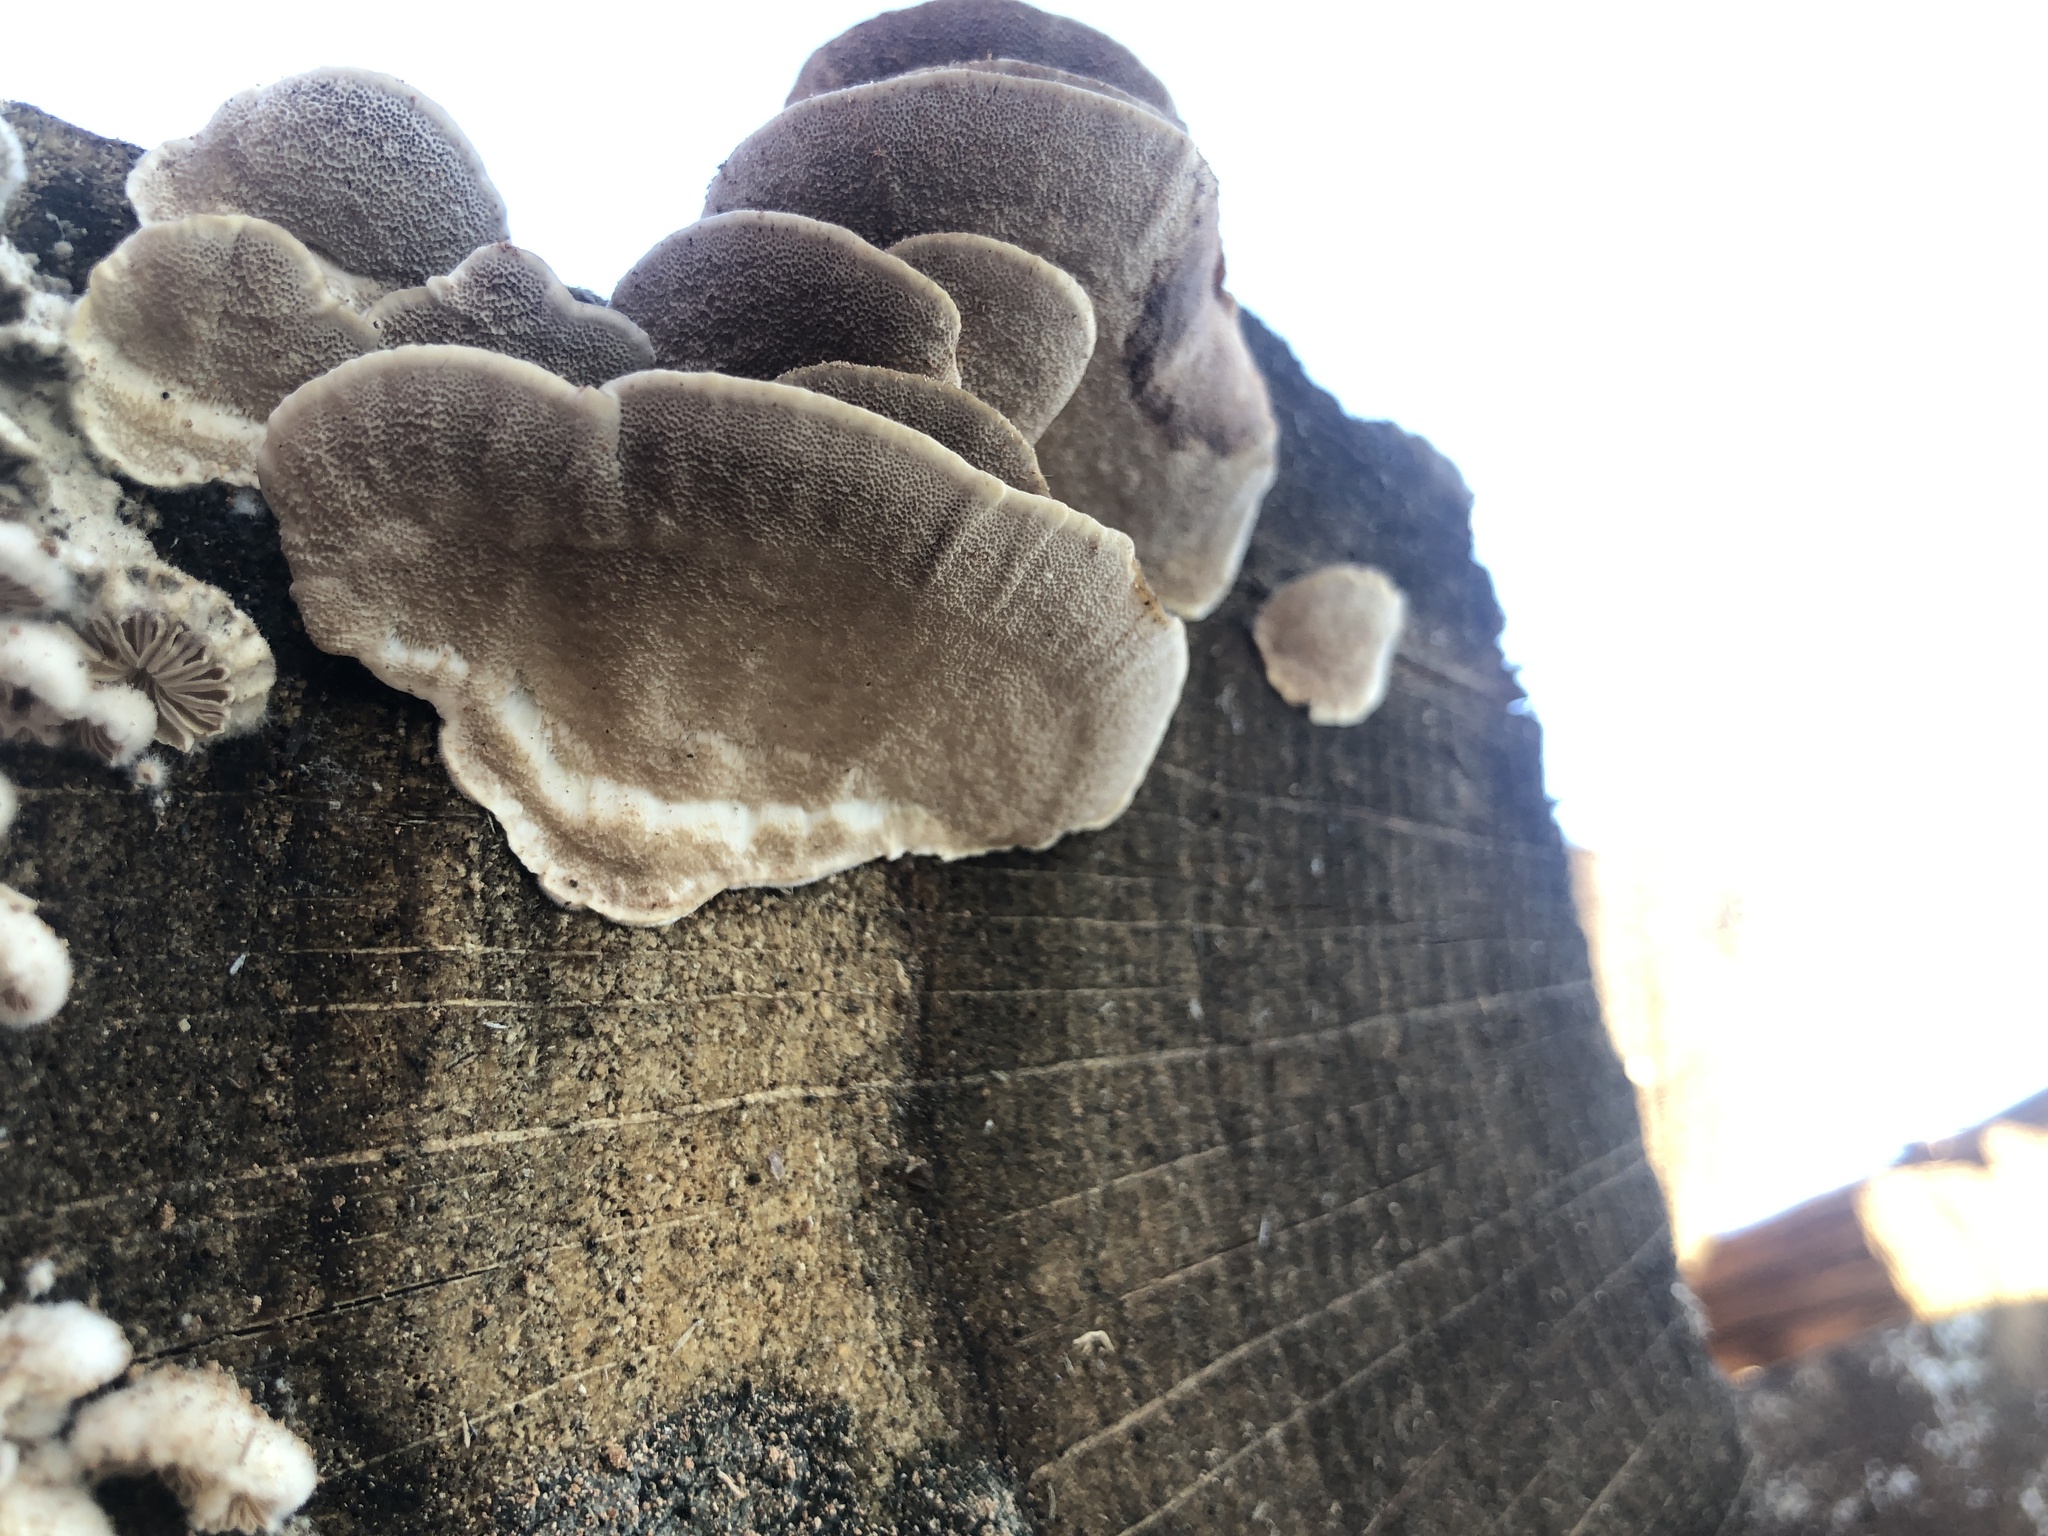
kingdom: Fungi
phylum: Basidiomycota
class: Agaricomycetes
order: Polyporales
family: Polyporaceae
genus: Trametes
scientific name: Trametes versicolor
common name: Turkeytail
